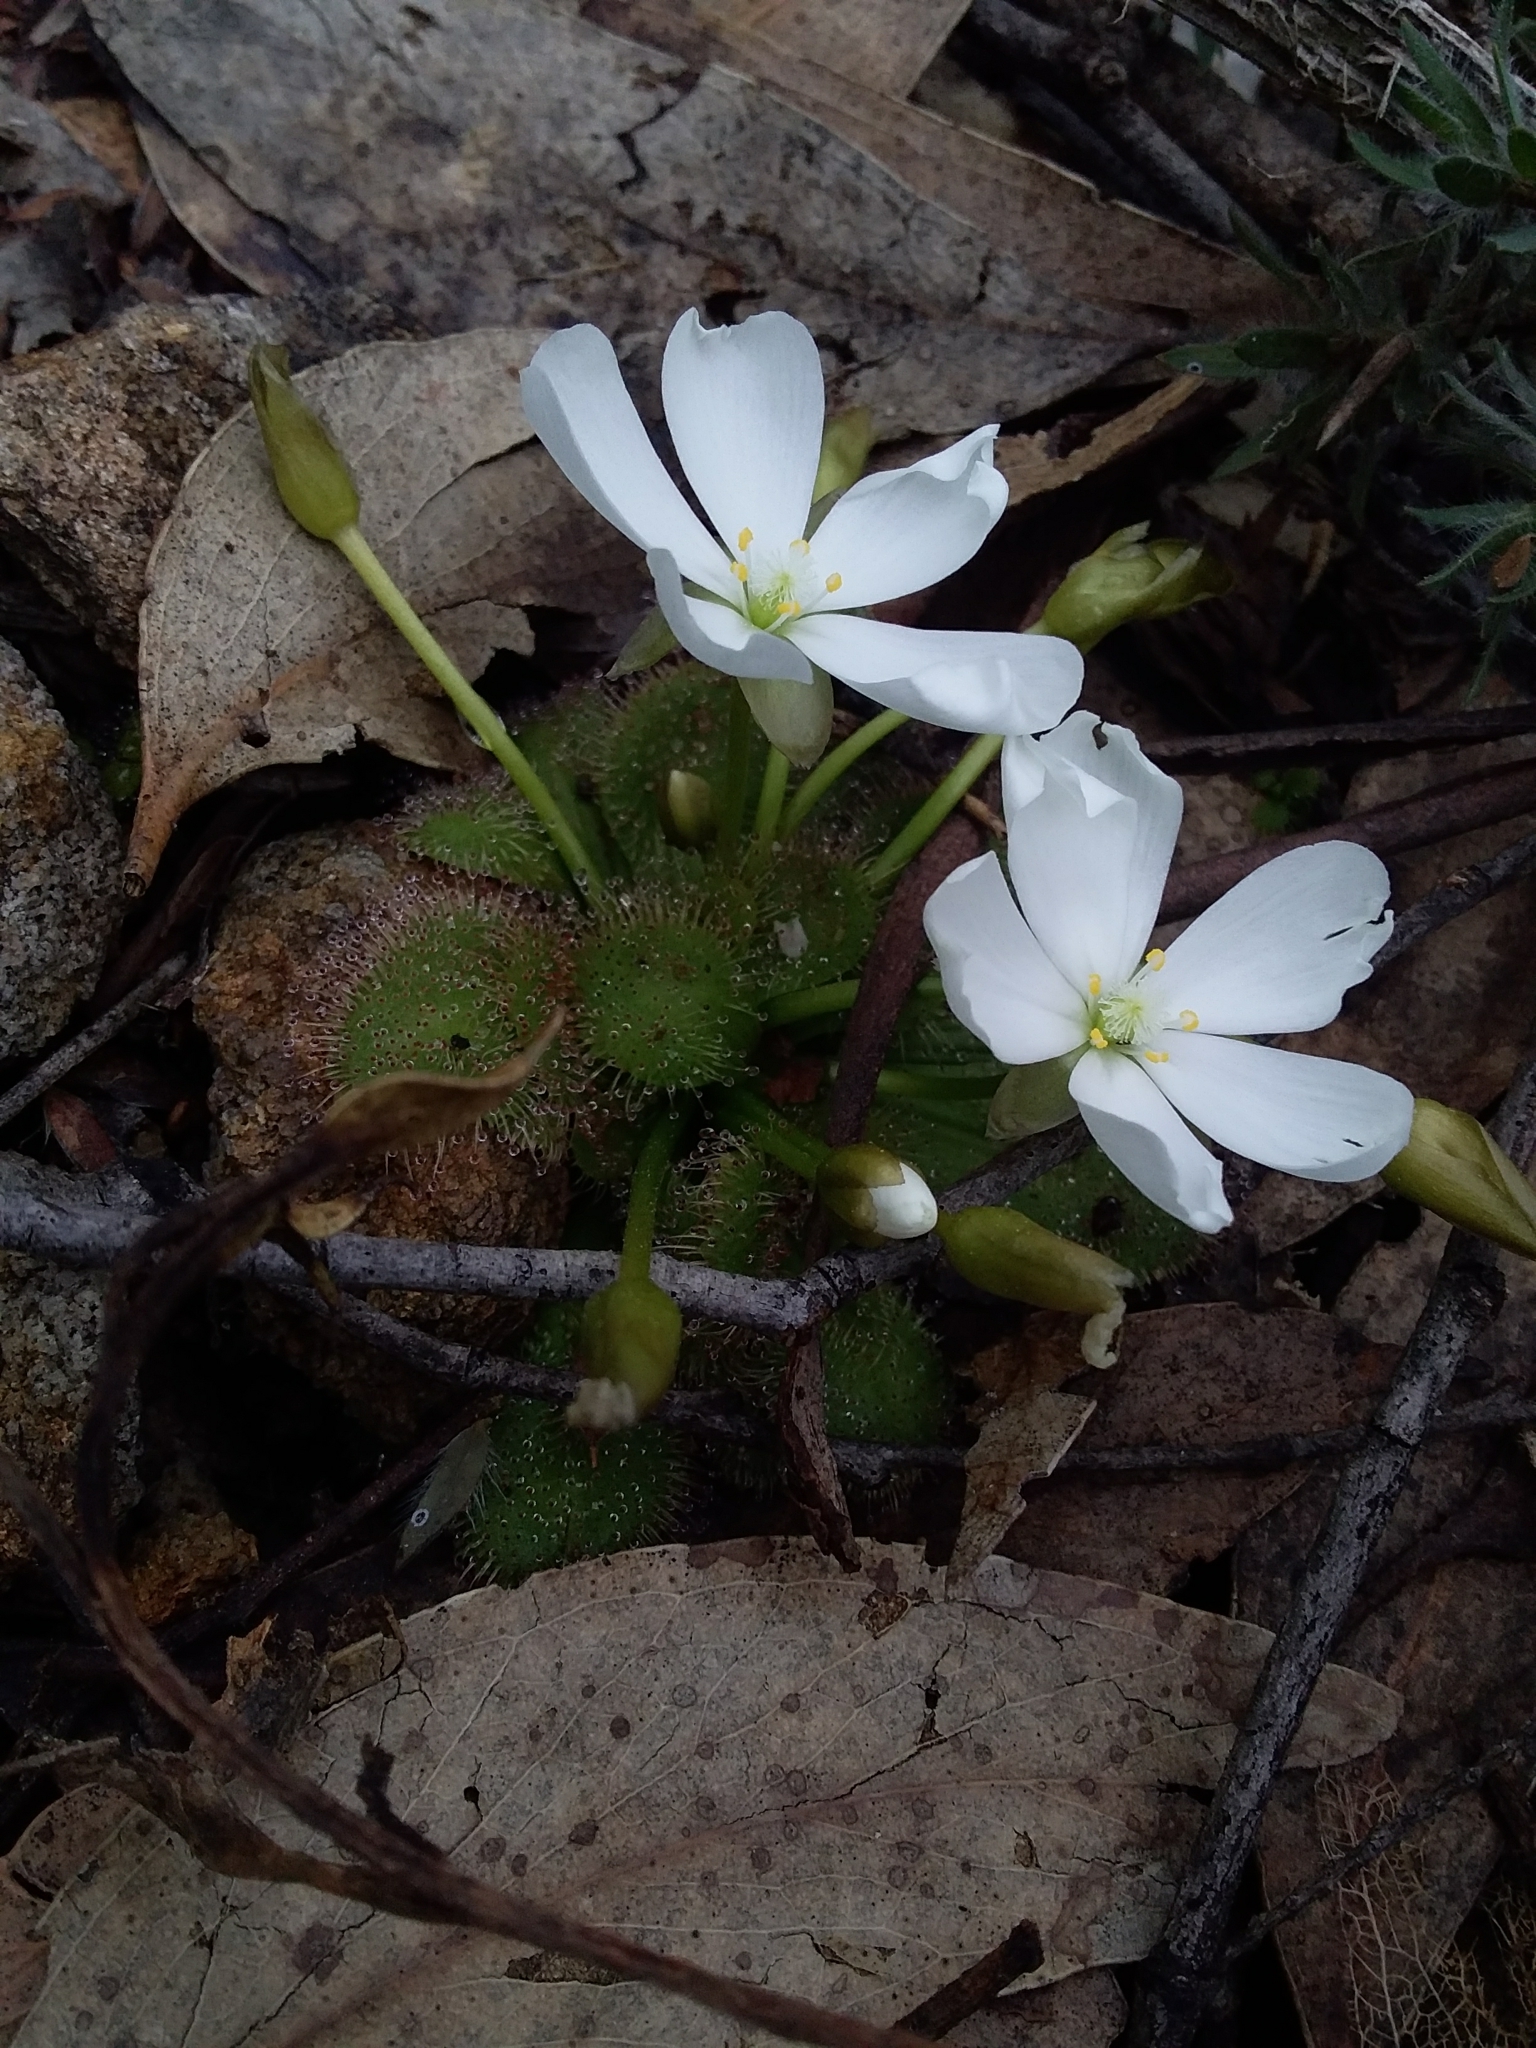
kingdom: Plantae
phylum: Tracheophyta
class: Magnoliopsida
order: Caryophyllales
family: Droseraceae
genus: Drosera
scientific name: Drosera whittakeri
